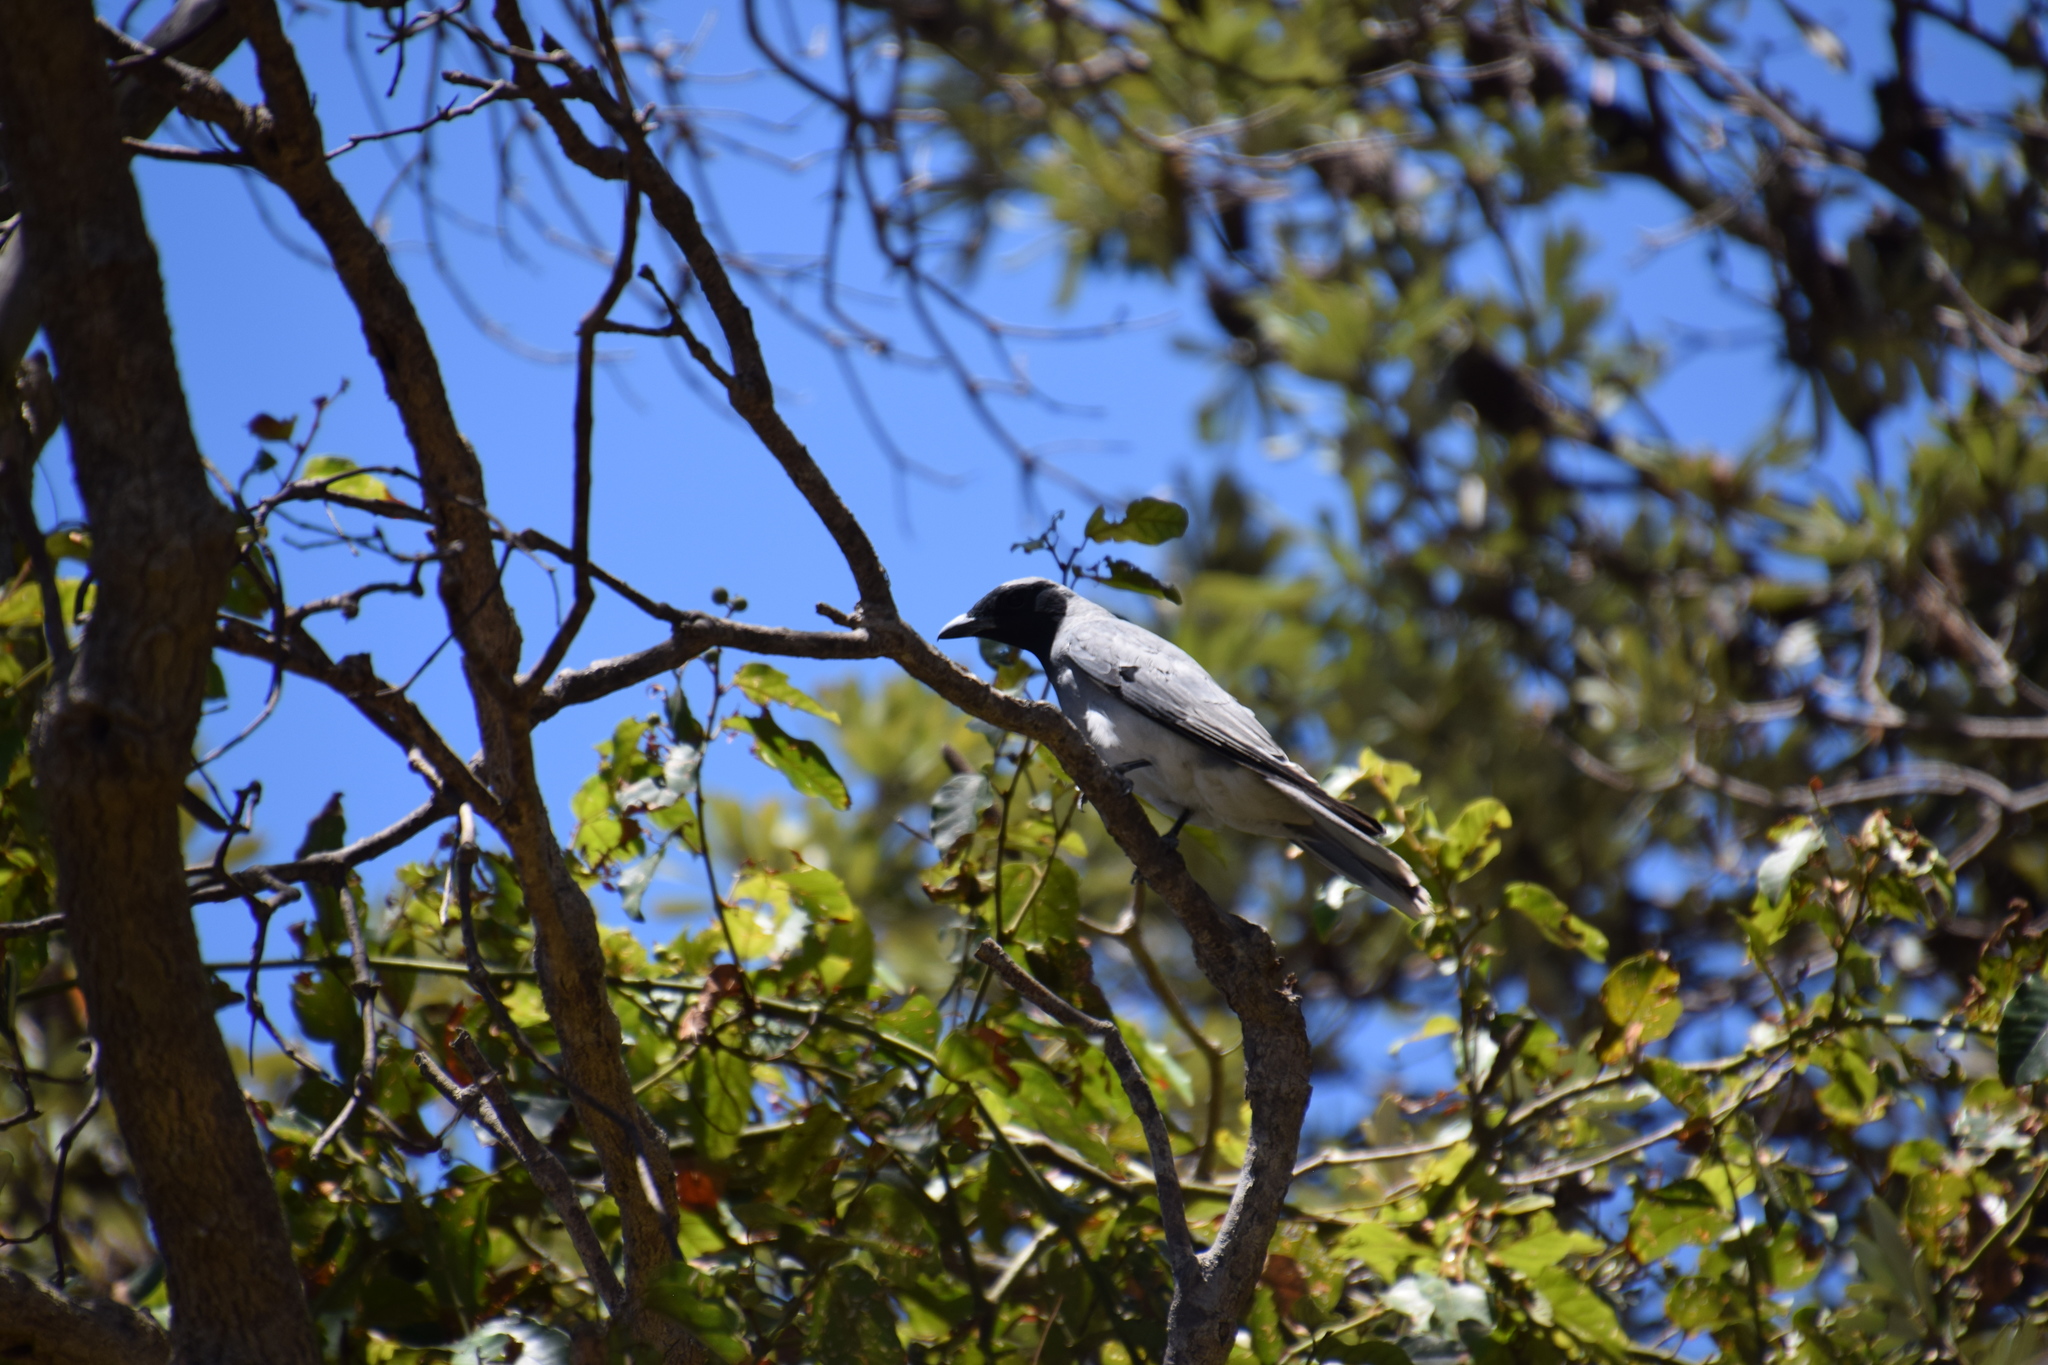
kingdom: Animalia
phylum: Chordata
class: Aves
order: Passeriformes
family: Campephagidae
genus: Coracina
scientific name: Coracina novaehollandiae
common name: Black-faced cuckooshrike
